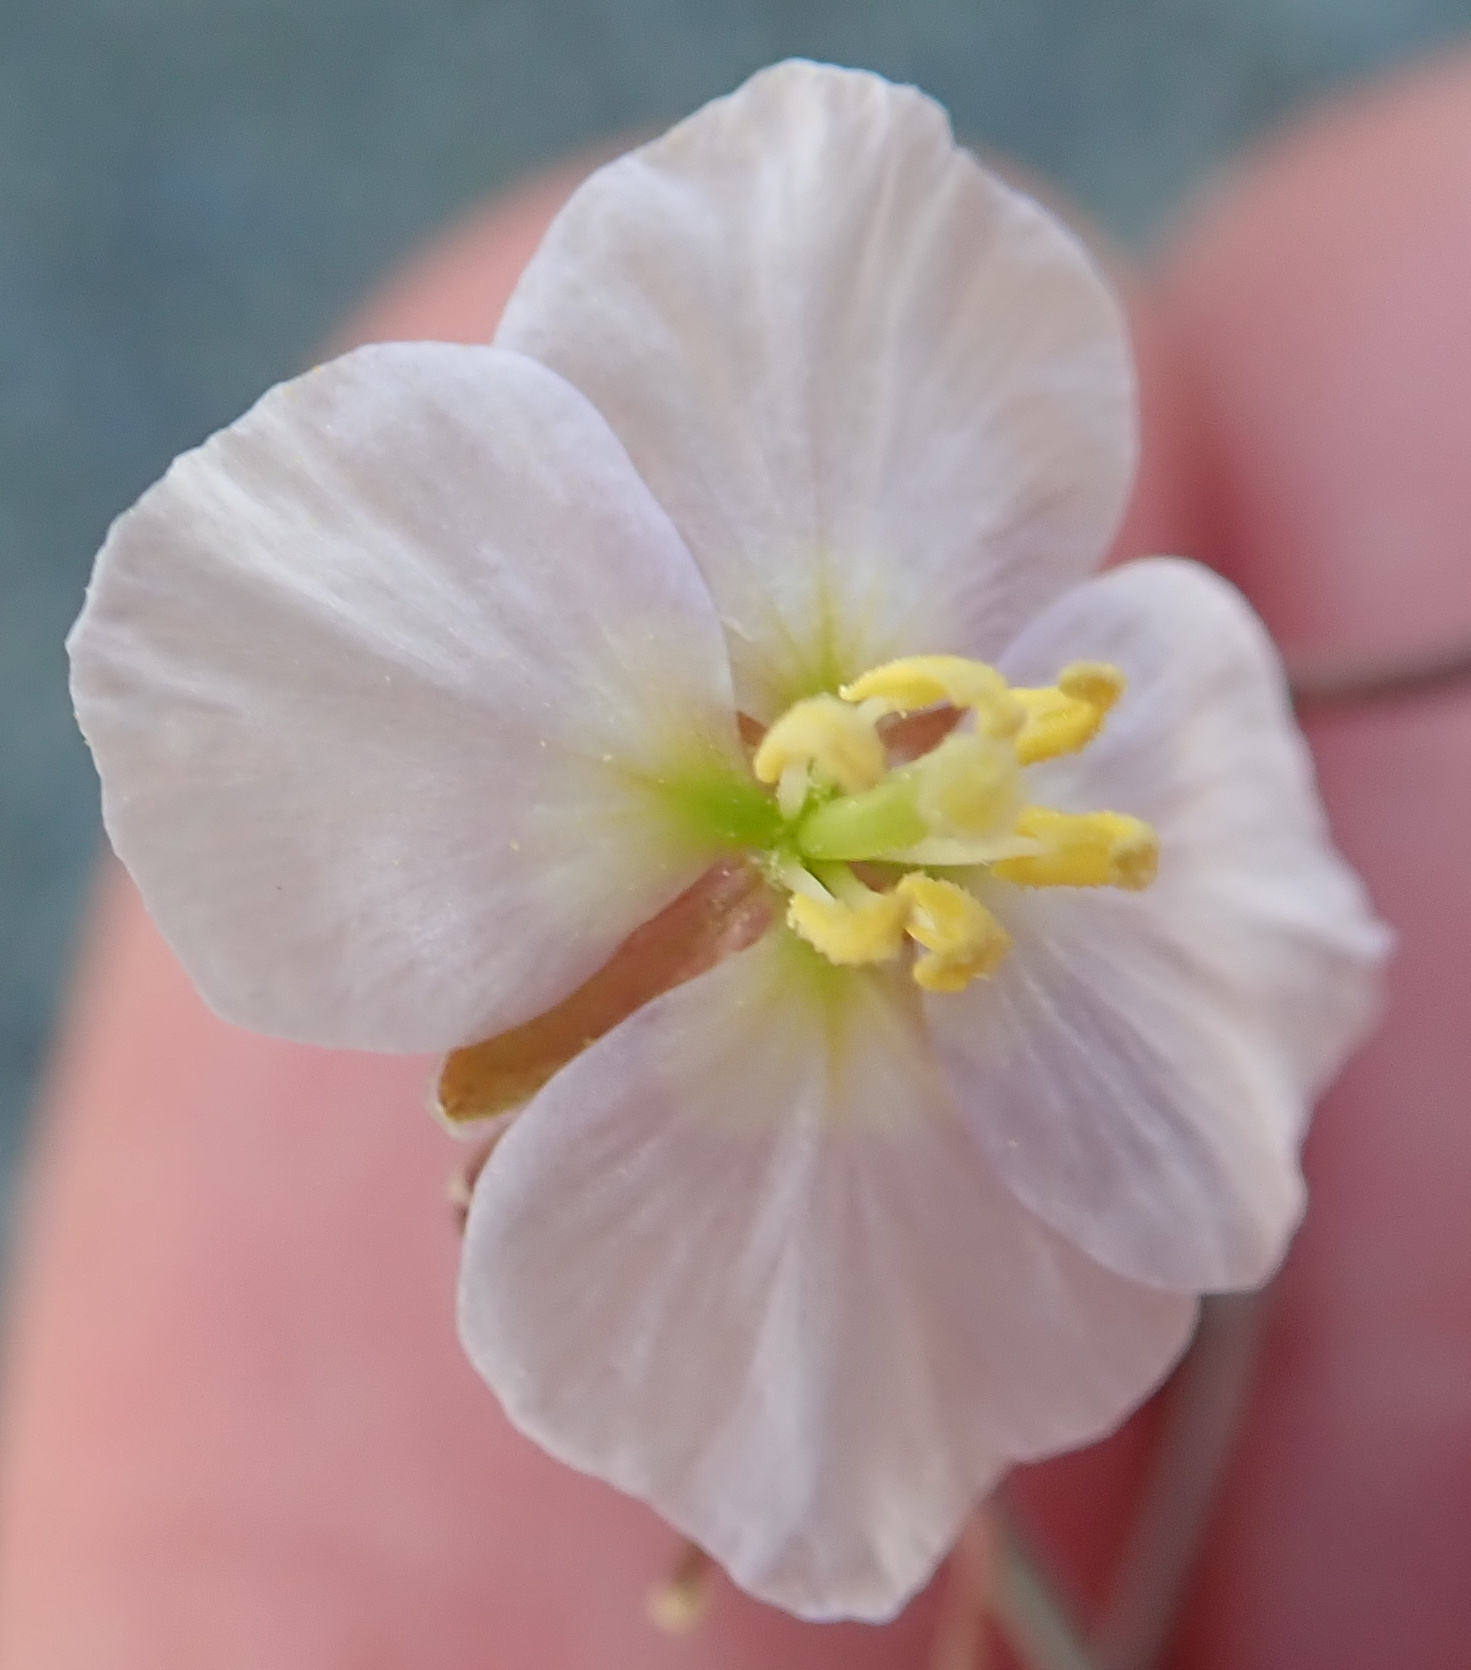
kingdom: Plantae
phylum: Tracheophyta
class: Magnoliopsida
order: Brassicales
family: Brassicaceae
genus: Heliophila
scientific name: Heliophila deserticola
